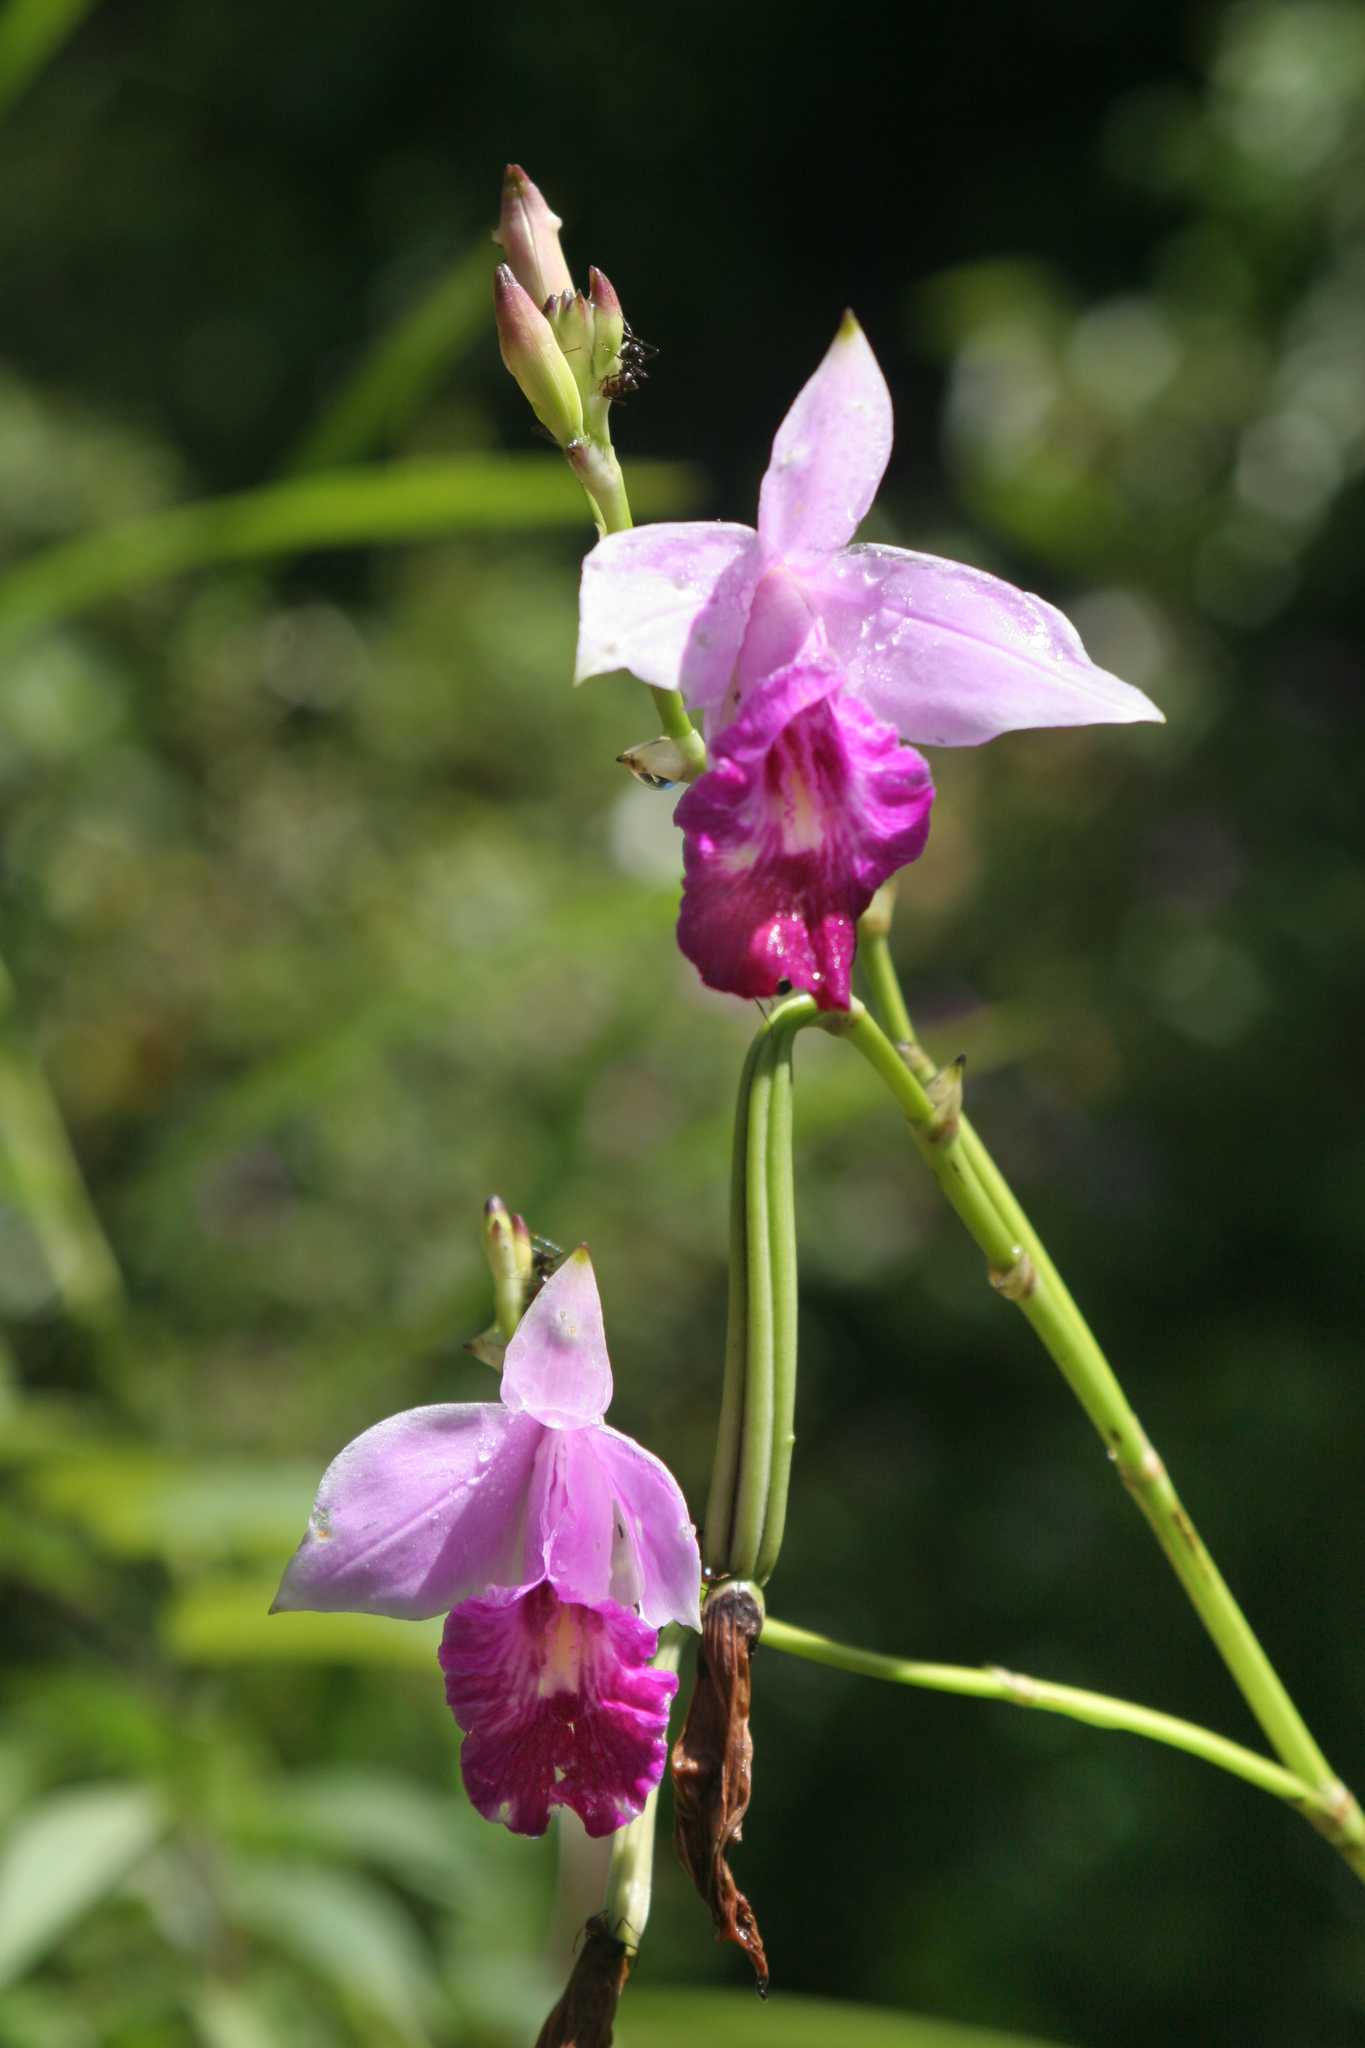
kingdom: Plantae
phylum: Tracheophyta
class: Liliopsida
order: Asparagales
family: Orchidaceae
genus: Arundina
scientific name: Arundina graminifolia
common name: Bamboo orchid
